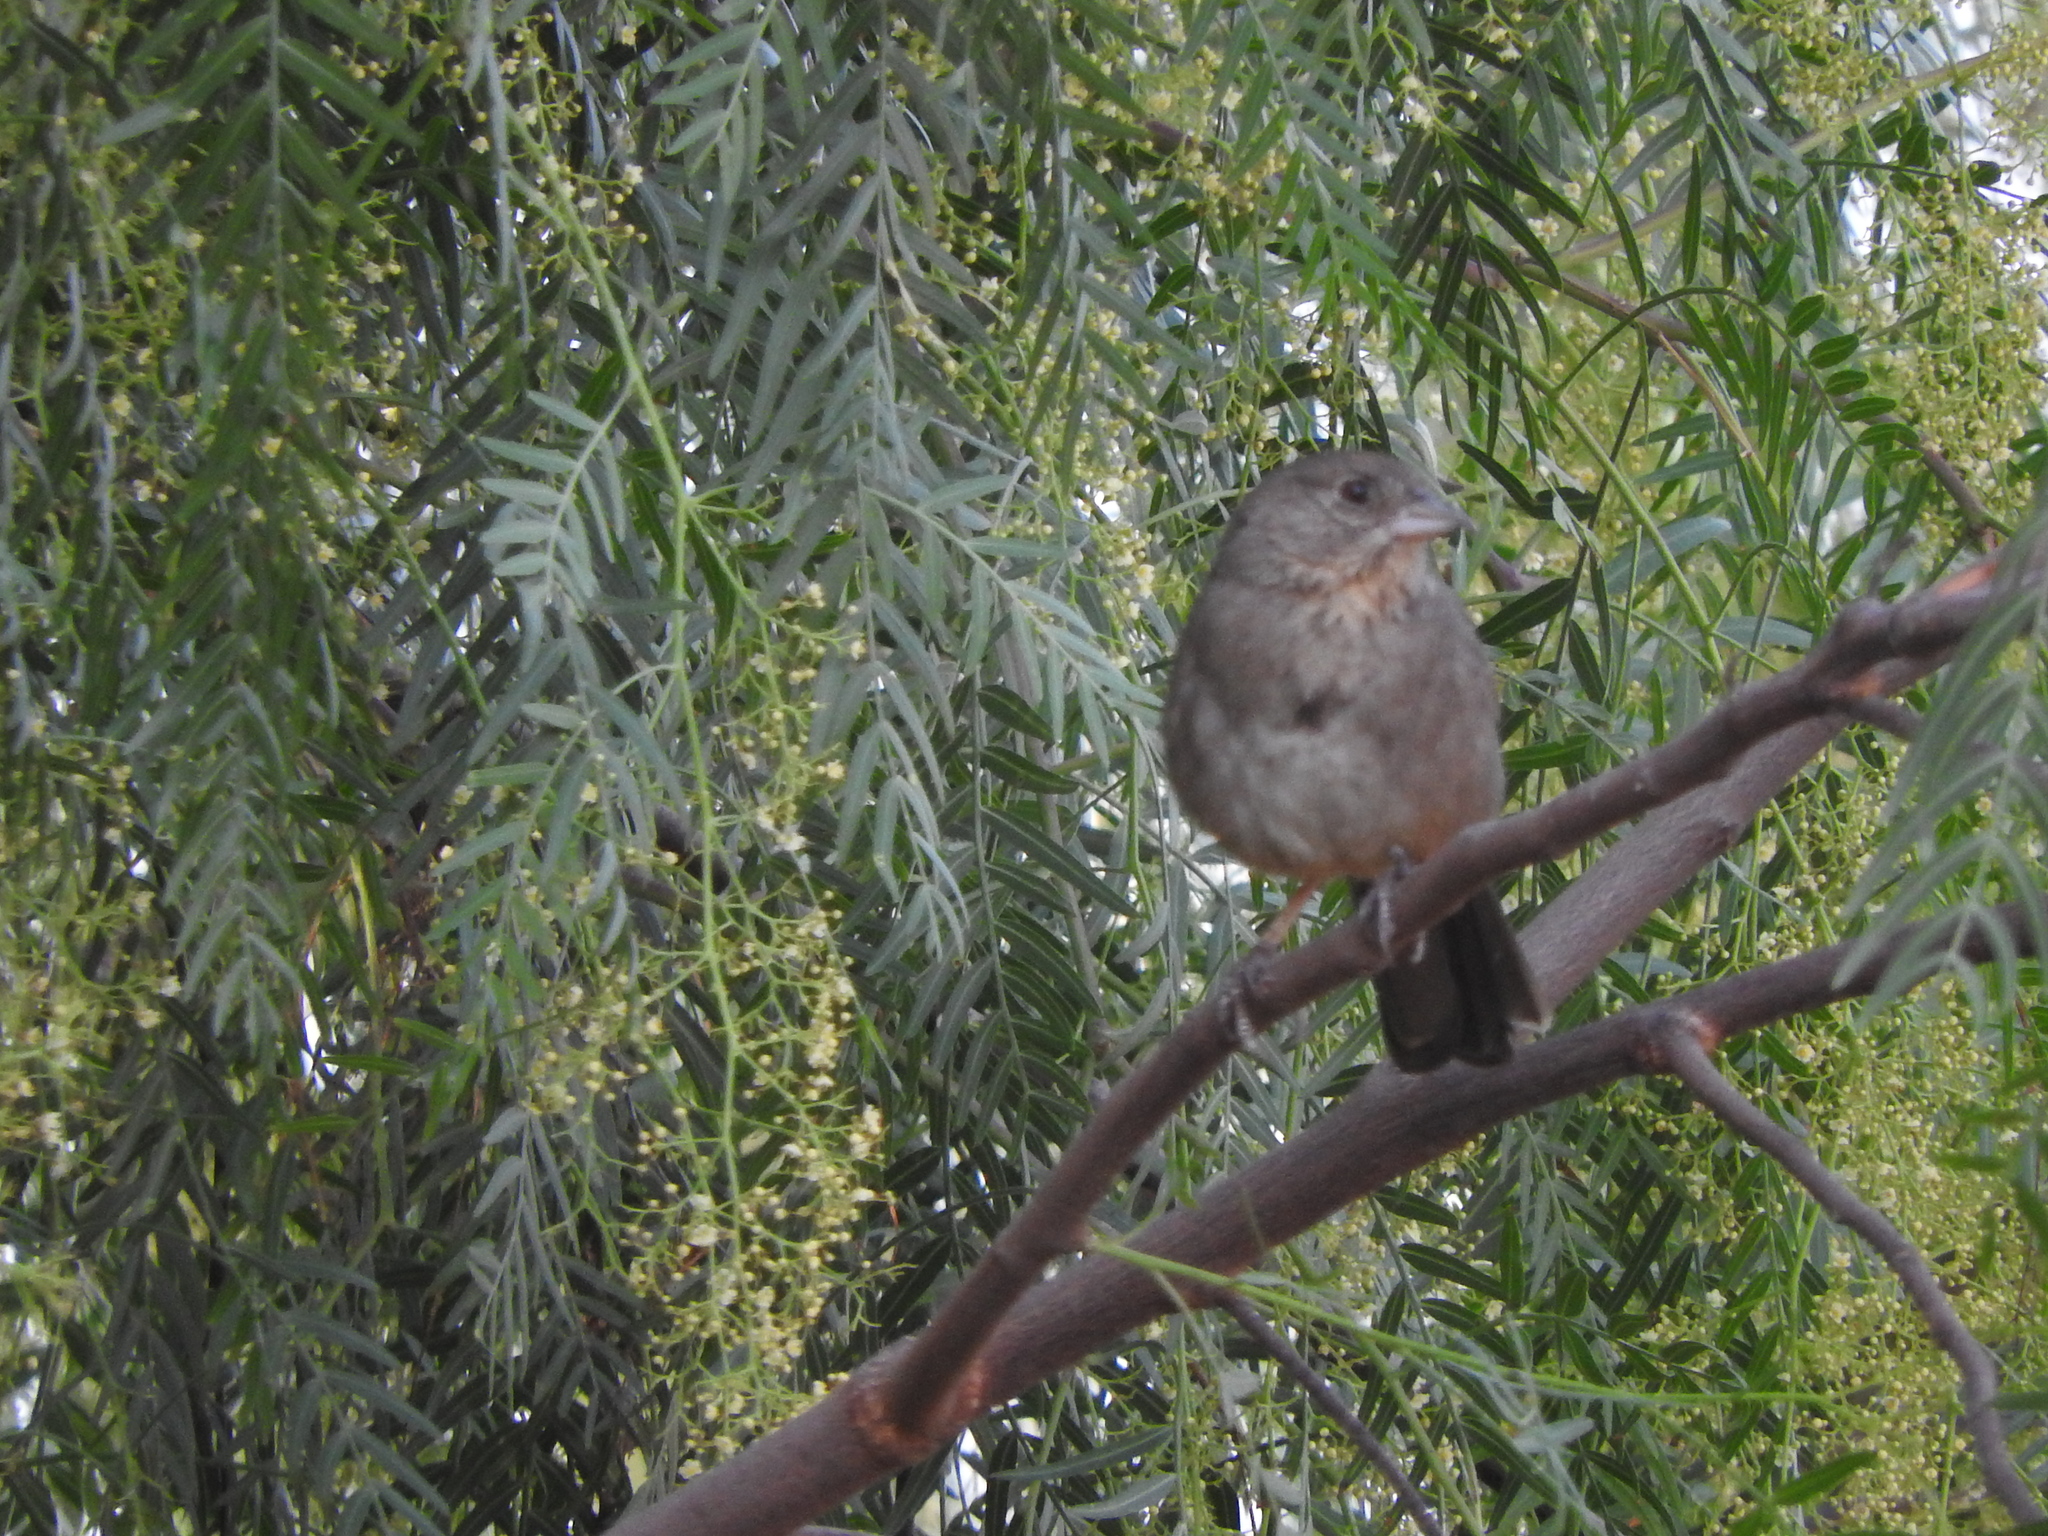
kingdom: Animalia
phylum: Chordata
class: Aves
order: Passeriformes
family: Passerellidae
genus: Melozone
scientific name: Melozone fusca
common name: Canyon towhee
